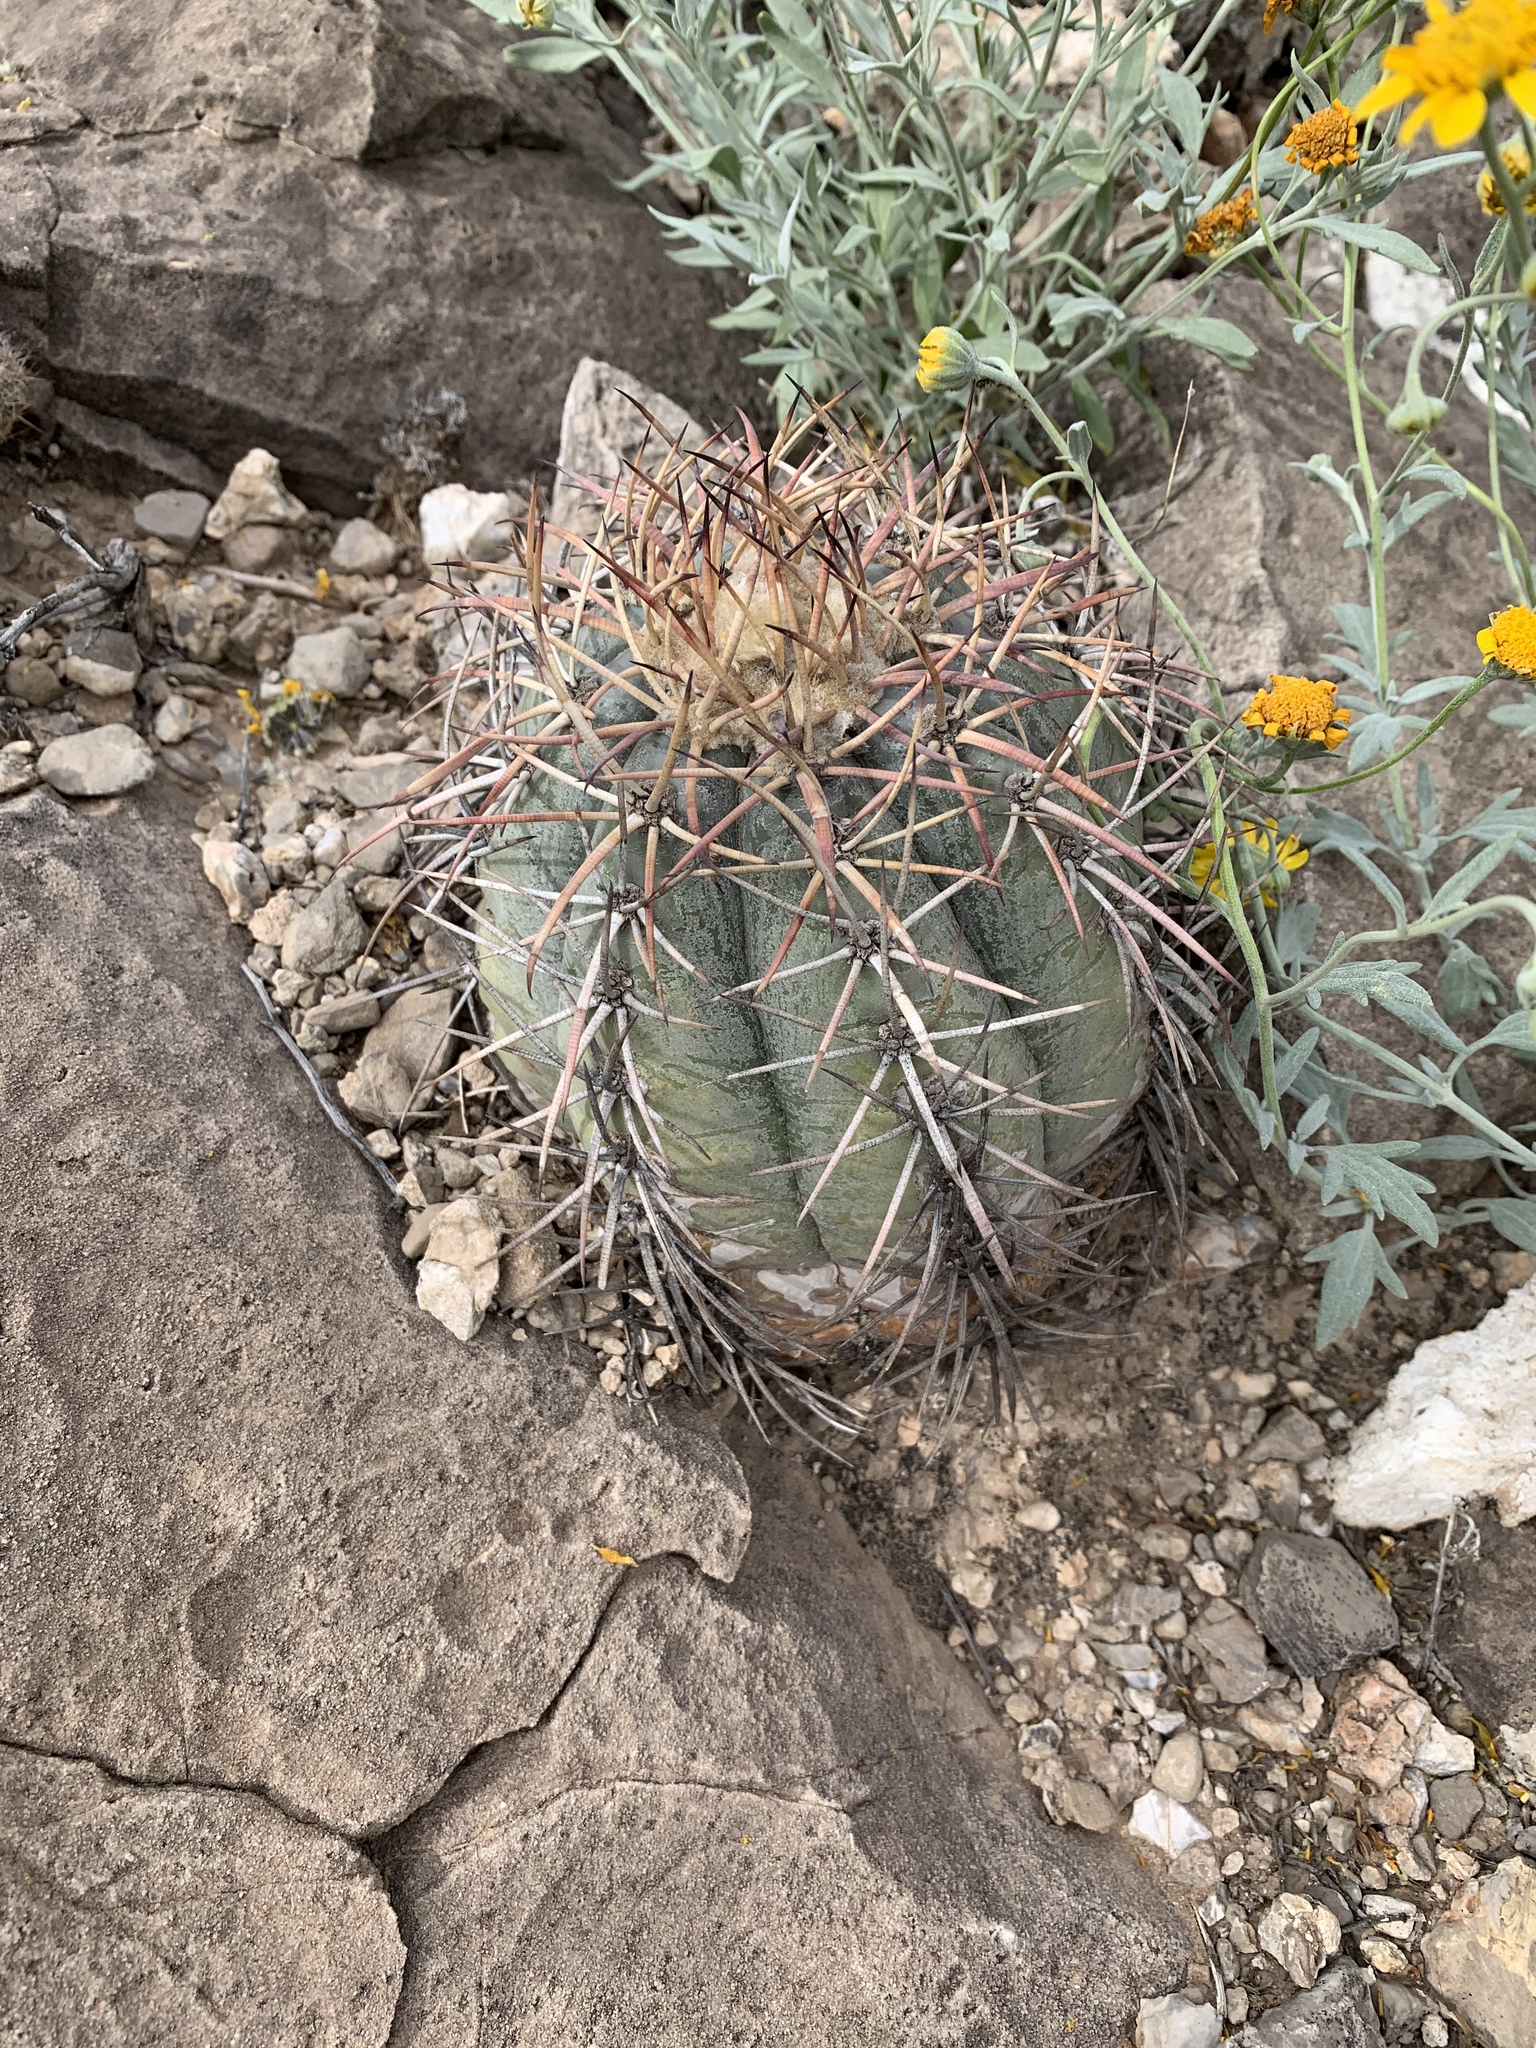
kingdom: Plantae
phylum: Tracheophyta
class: Magnoliopsida
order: Caryophyllales
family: Cactaceae
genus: Echinocactus
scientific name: Echinocactus horizonthalonius
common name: Devilshead
